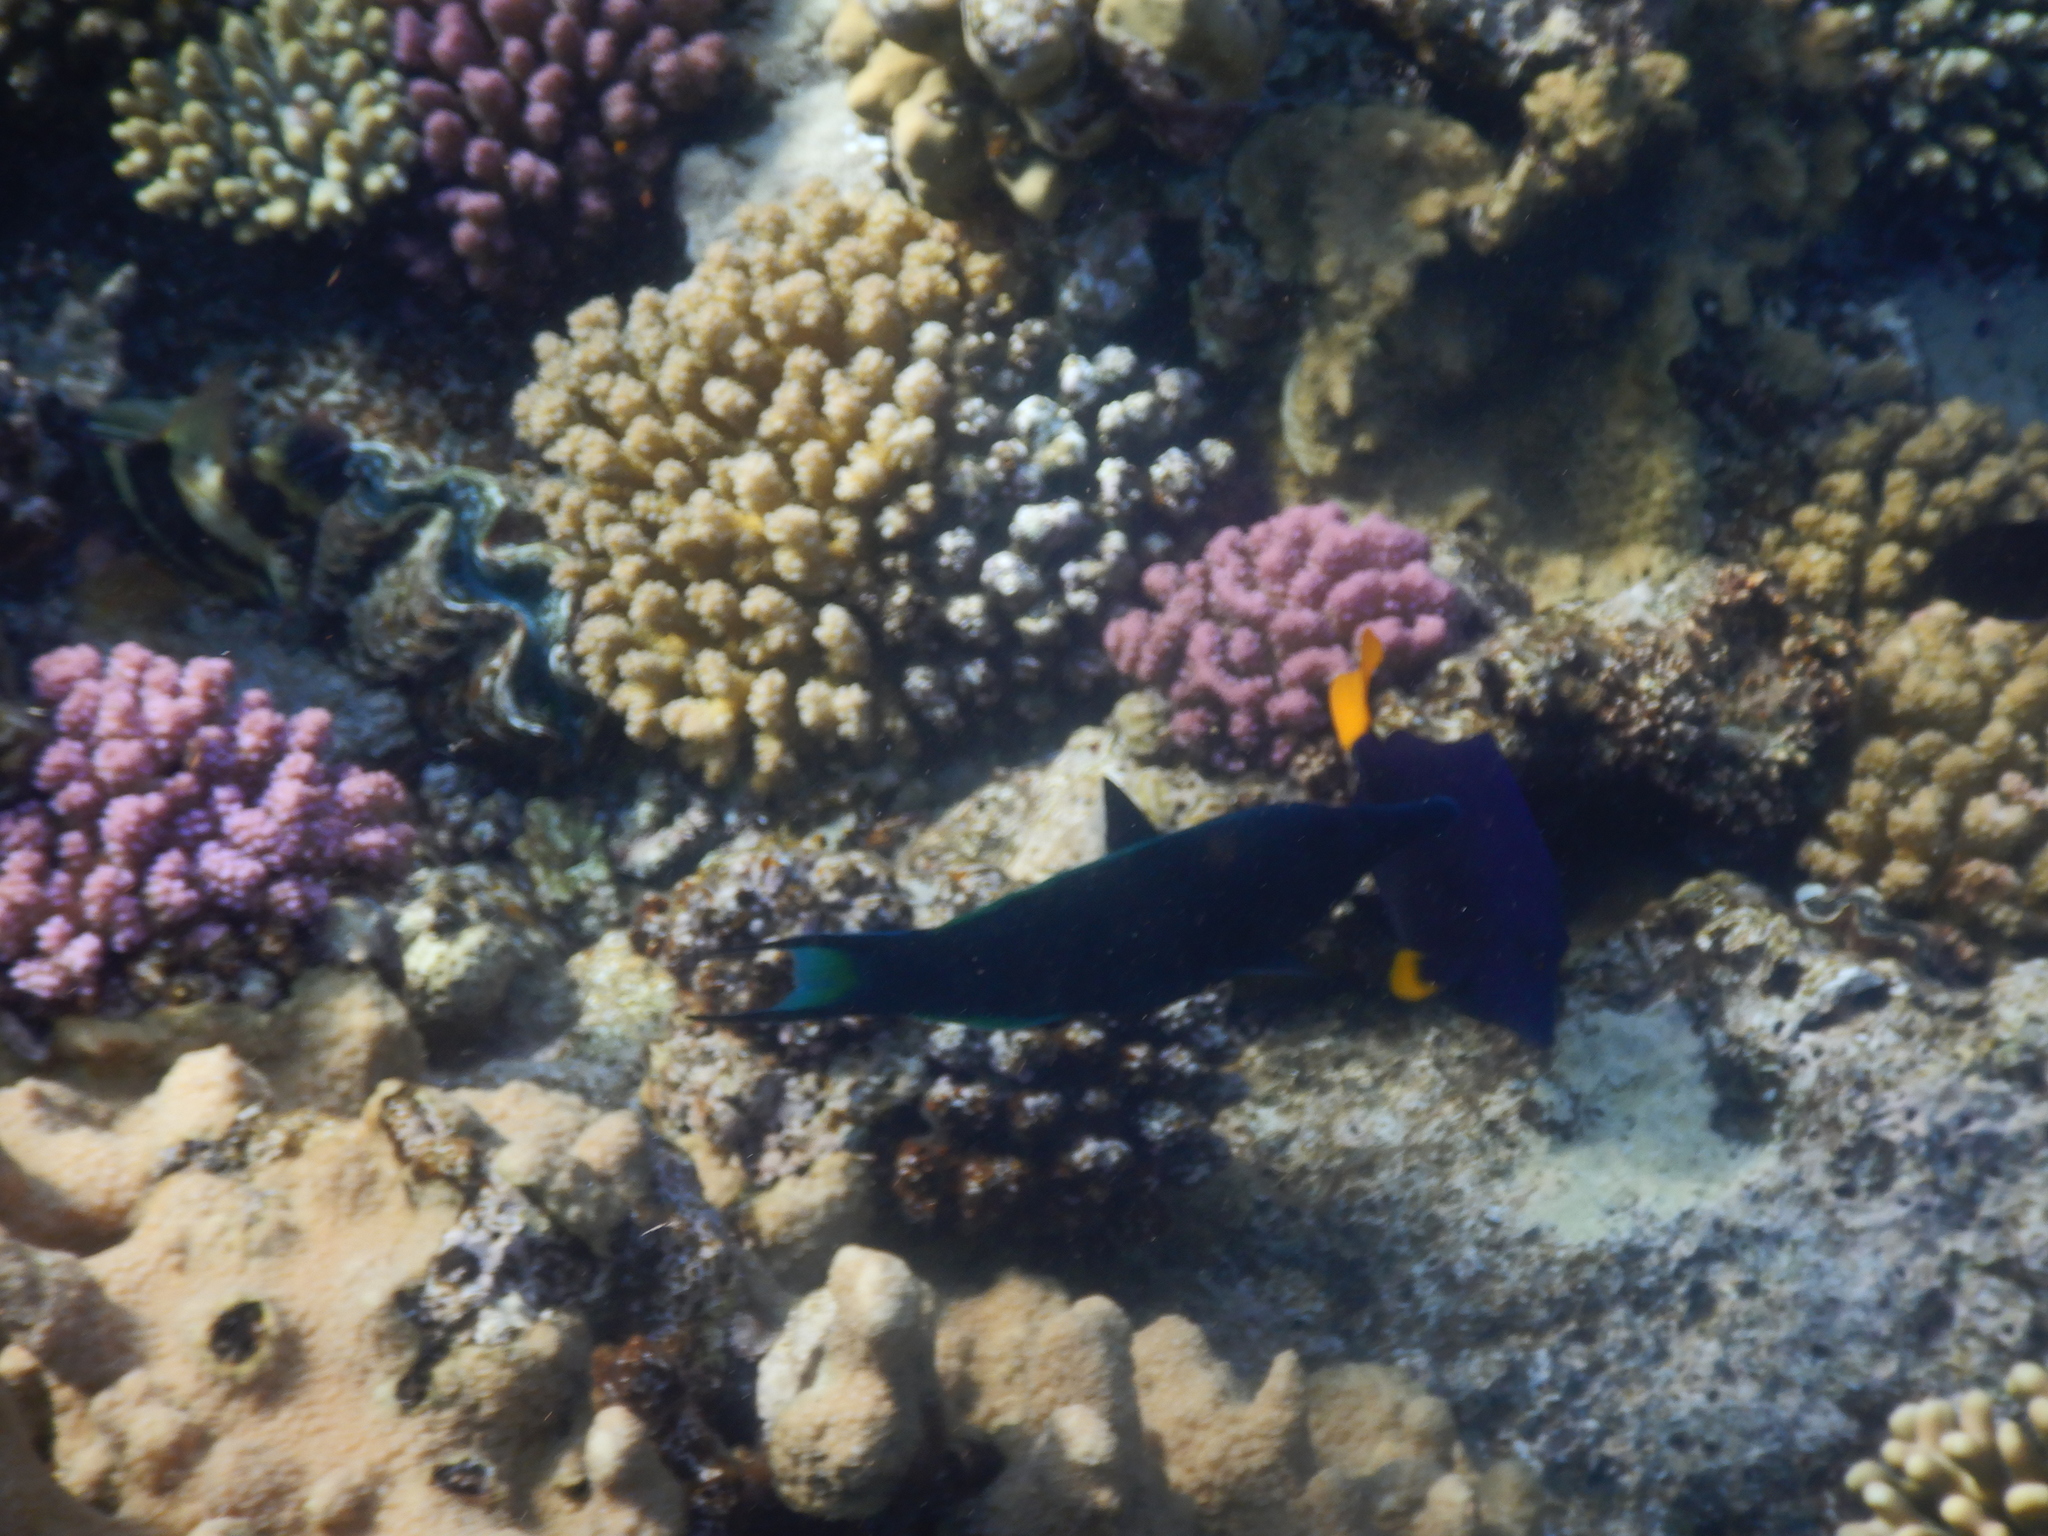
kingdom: Animalia
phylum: Chordata
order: Perciformes
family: Labridae
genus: Gomphosus
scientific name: Gomphosus klunzingeri
